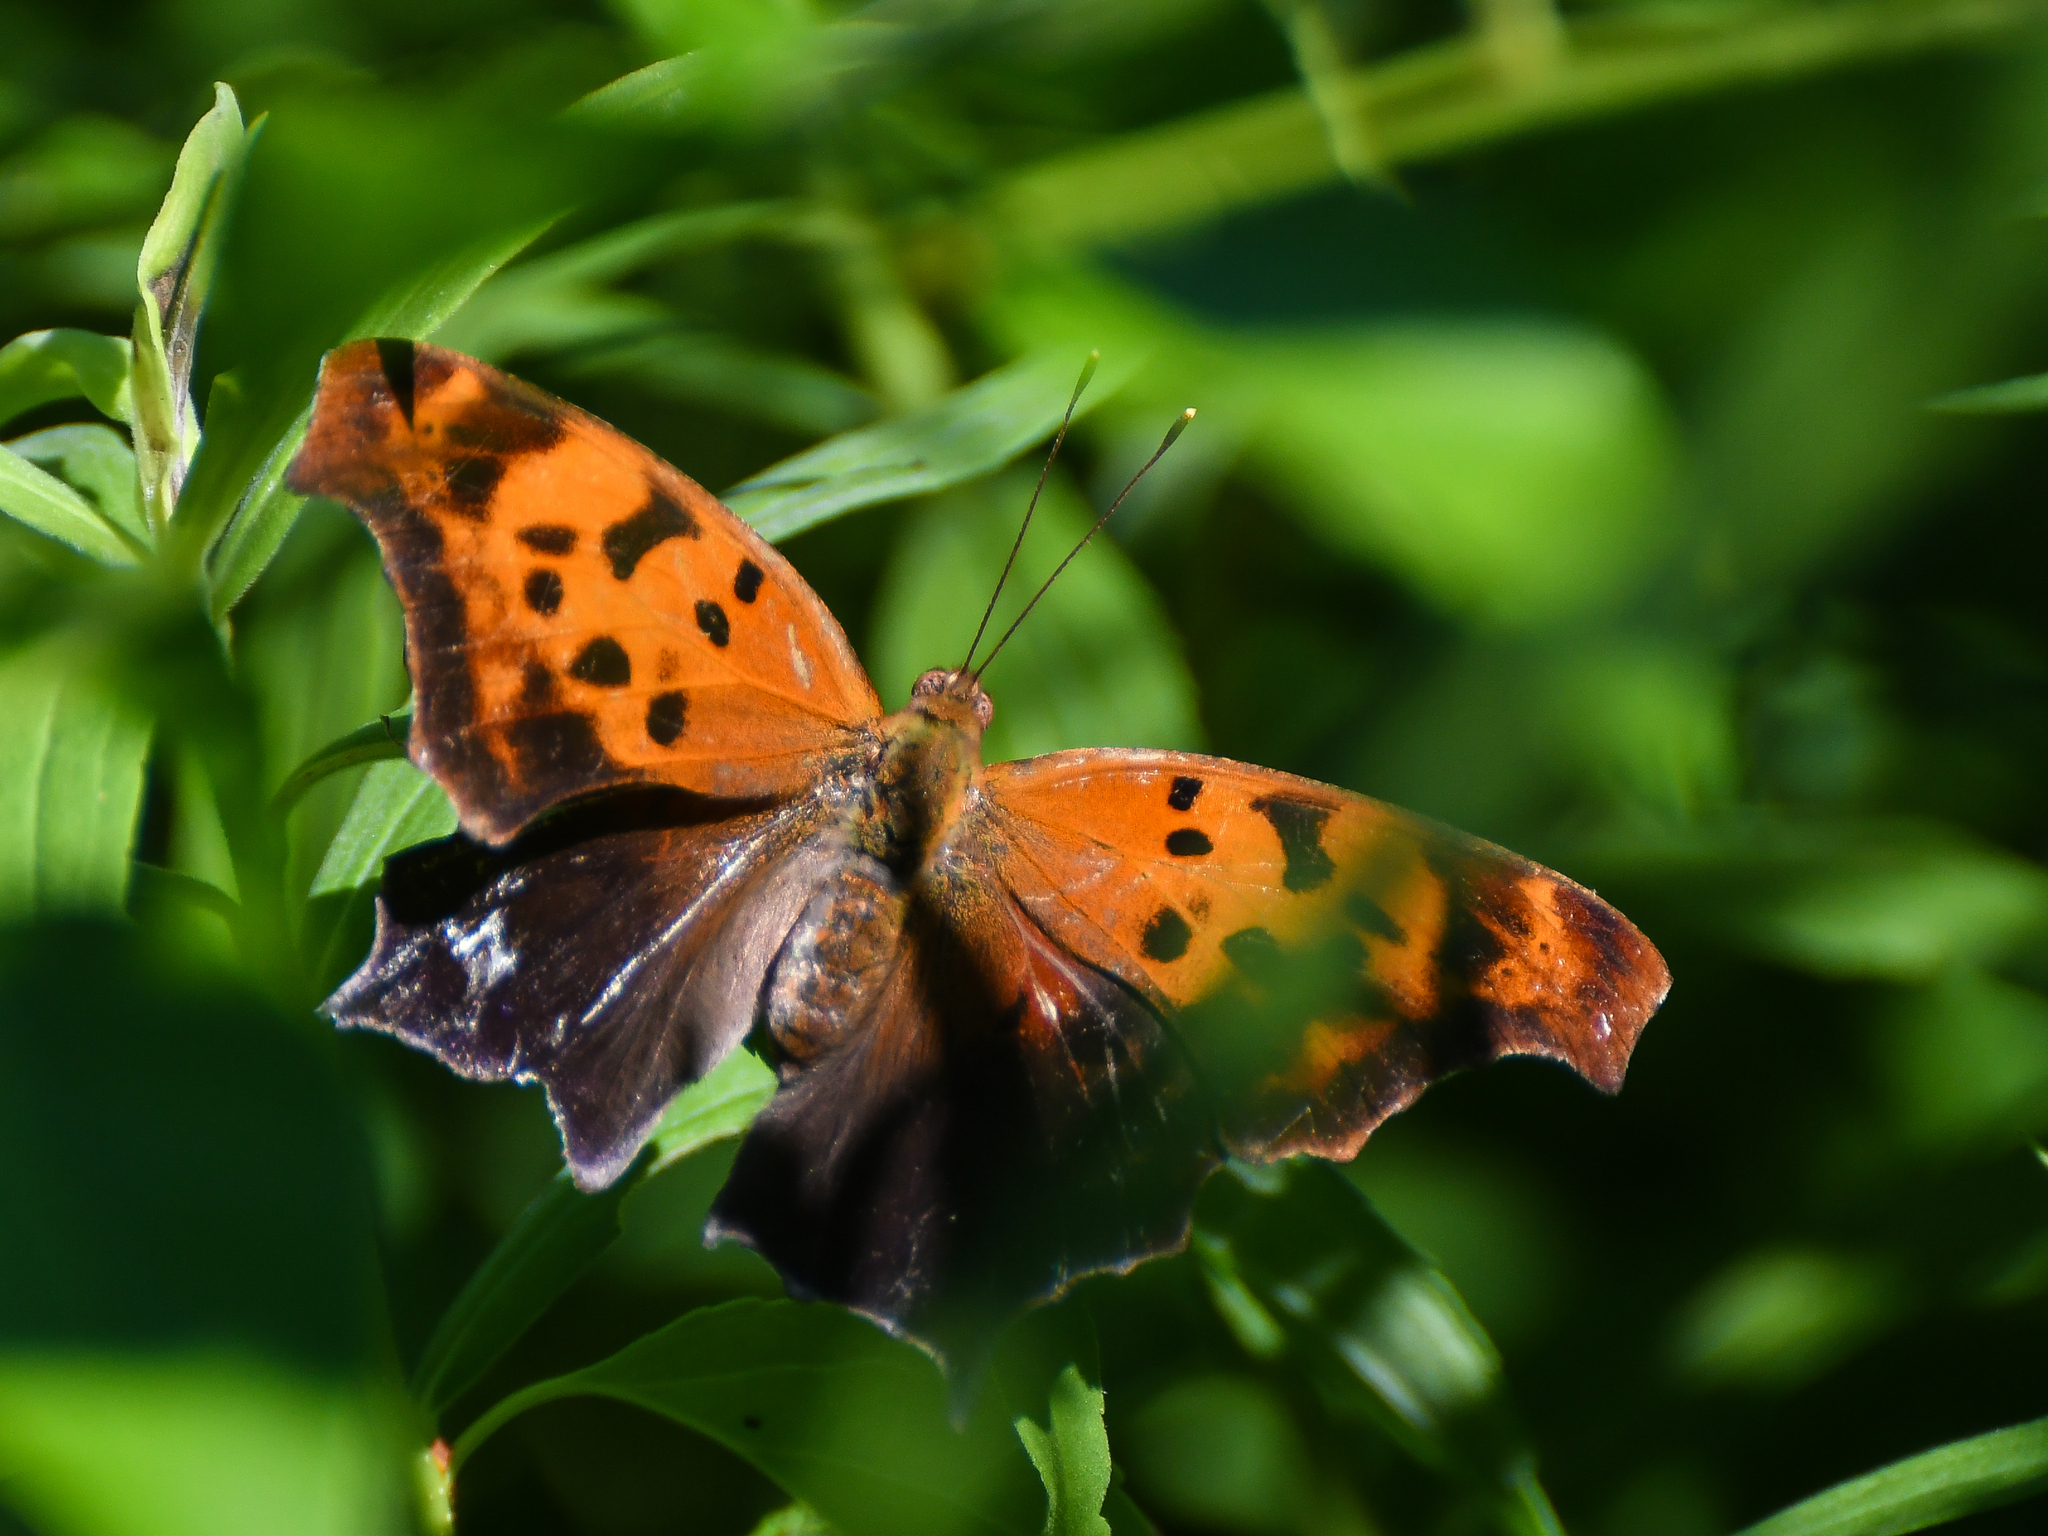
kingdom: Animalia
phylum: Arthropoda
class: Insecta
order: Lepidoptera
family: Nymphalidae
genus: Polygonia
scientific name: Polygonia interrogationis
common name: Question mark
